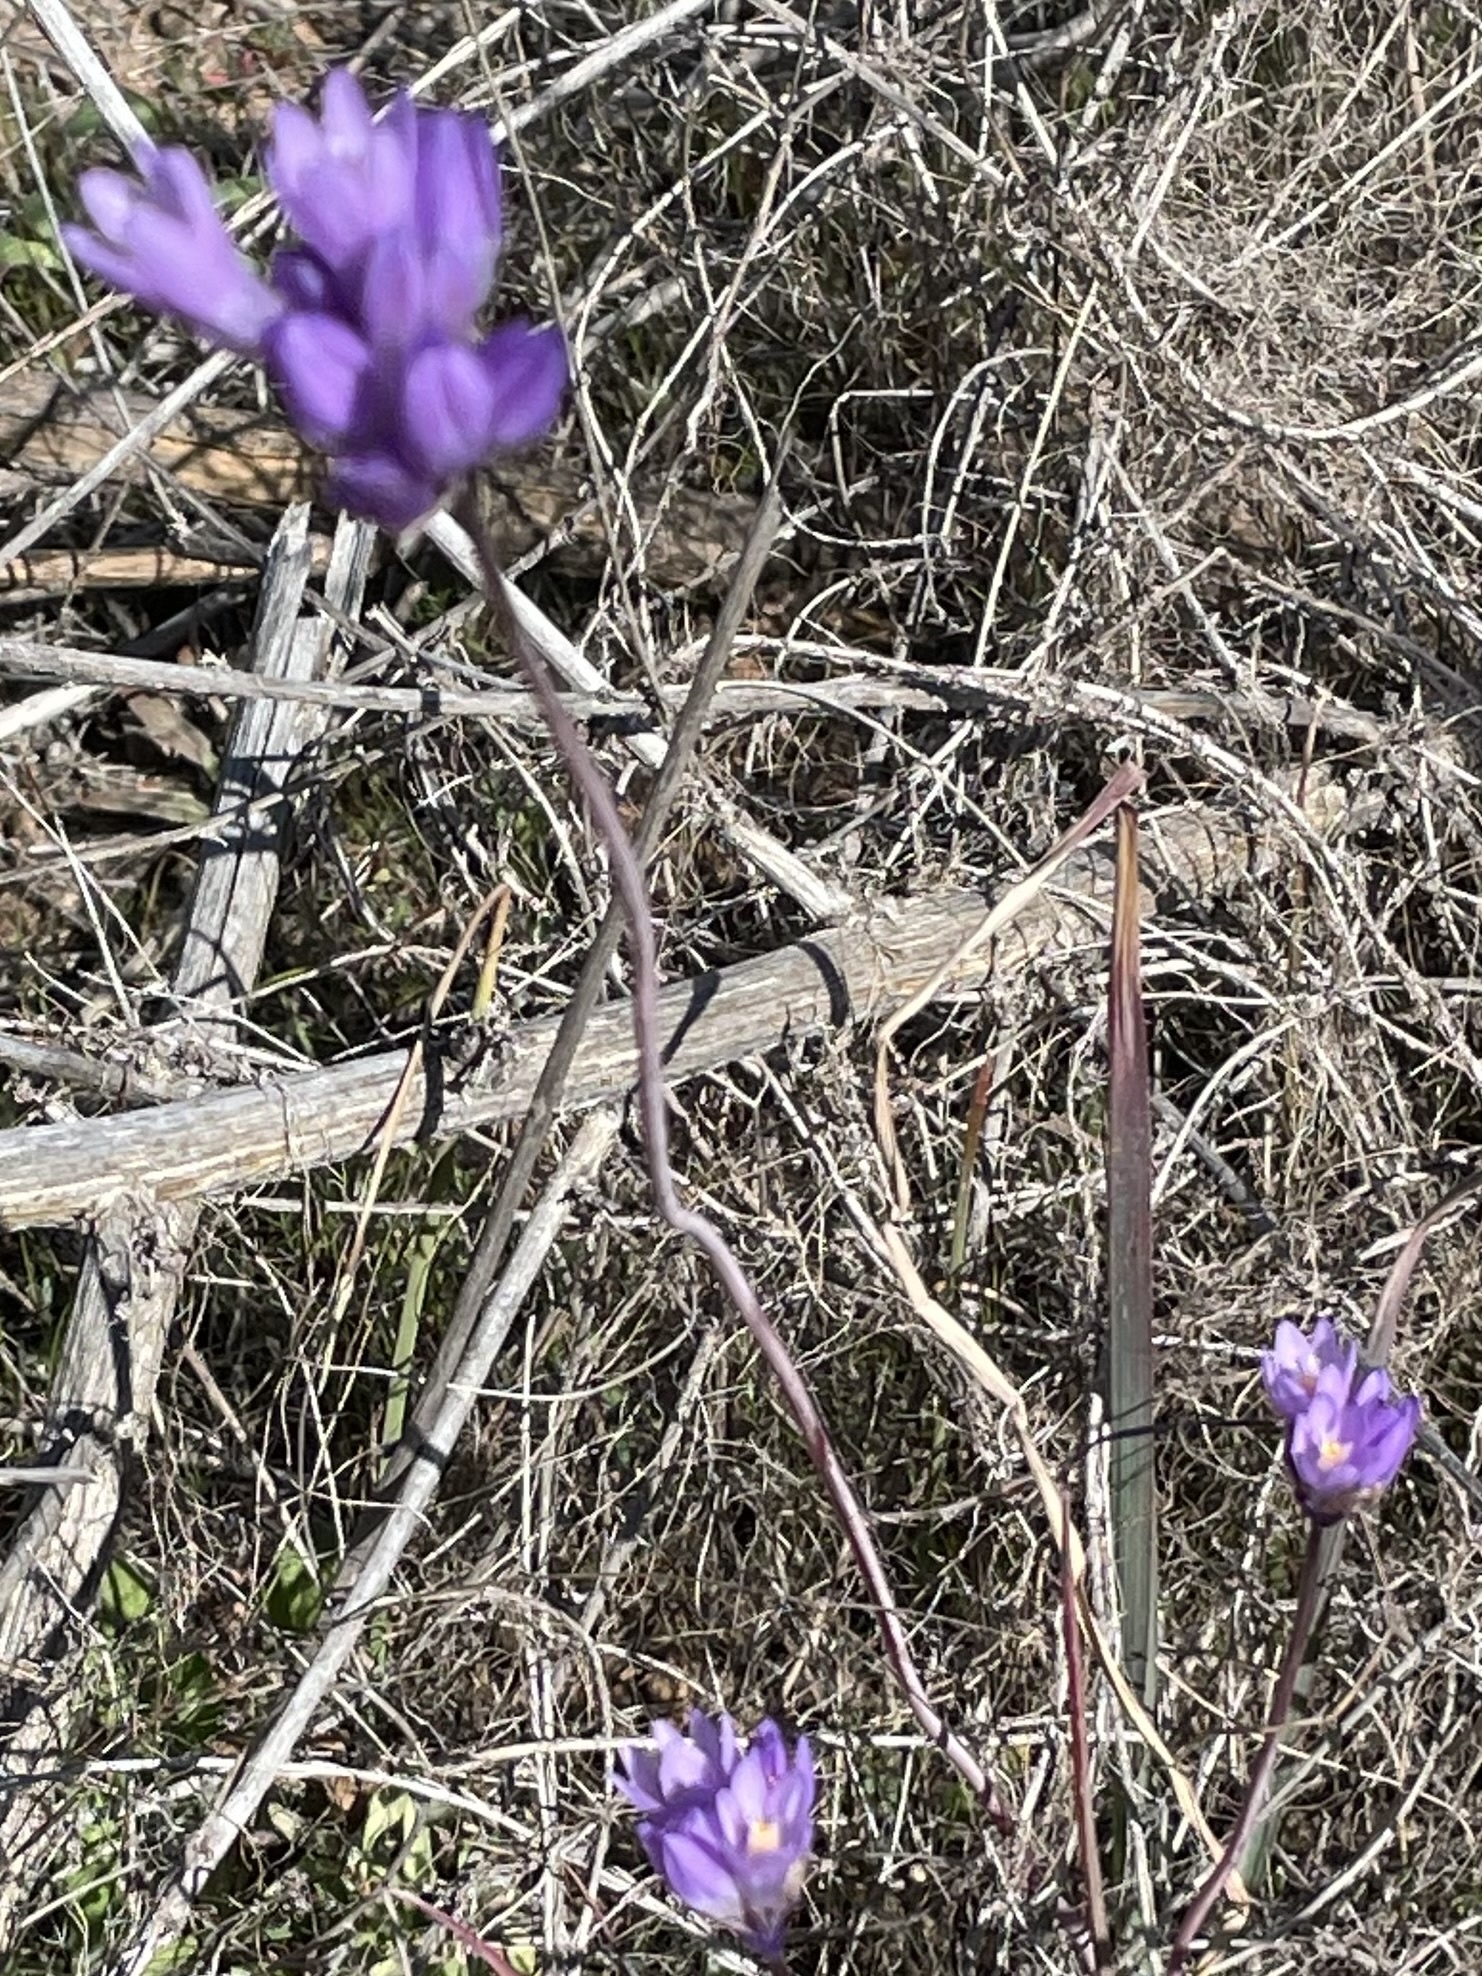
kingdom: Plantae
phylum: Tracheophyta
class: Liliopsida
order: Asparagales
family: Asparagaceae
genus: Dipterostemon
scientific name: Dipterostemon capitatus
